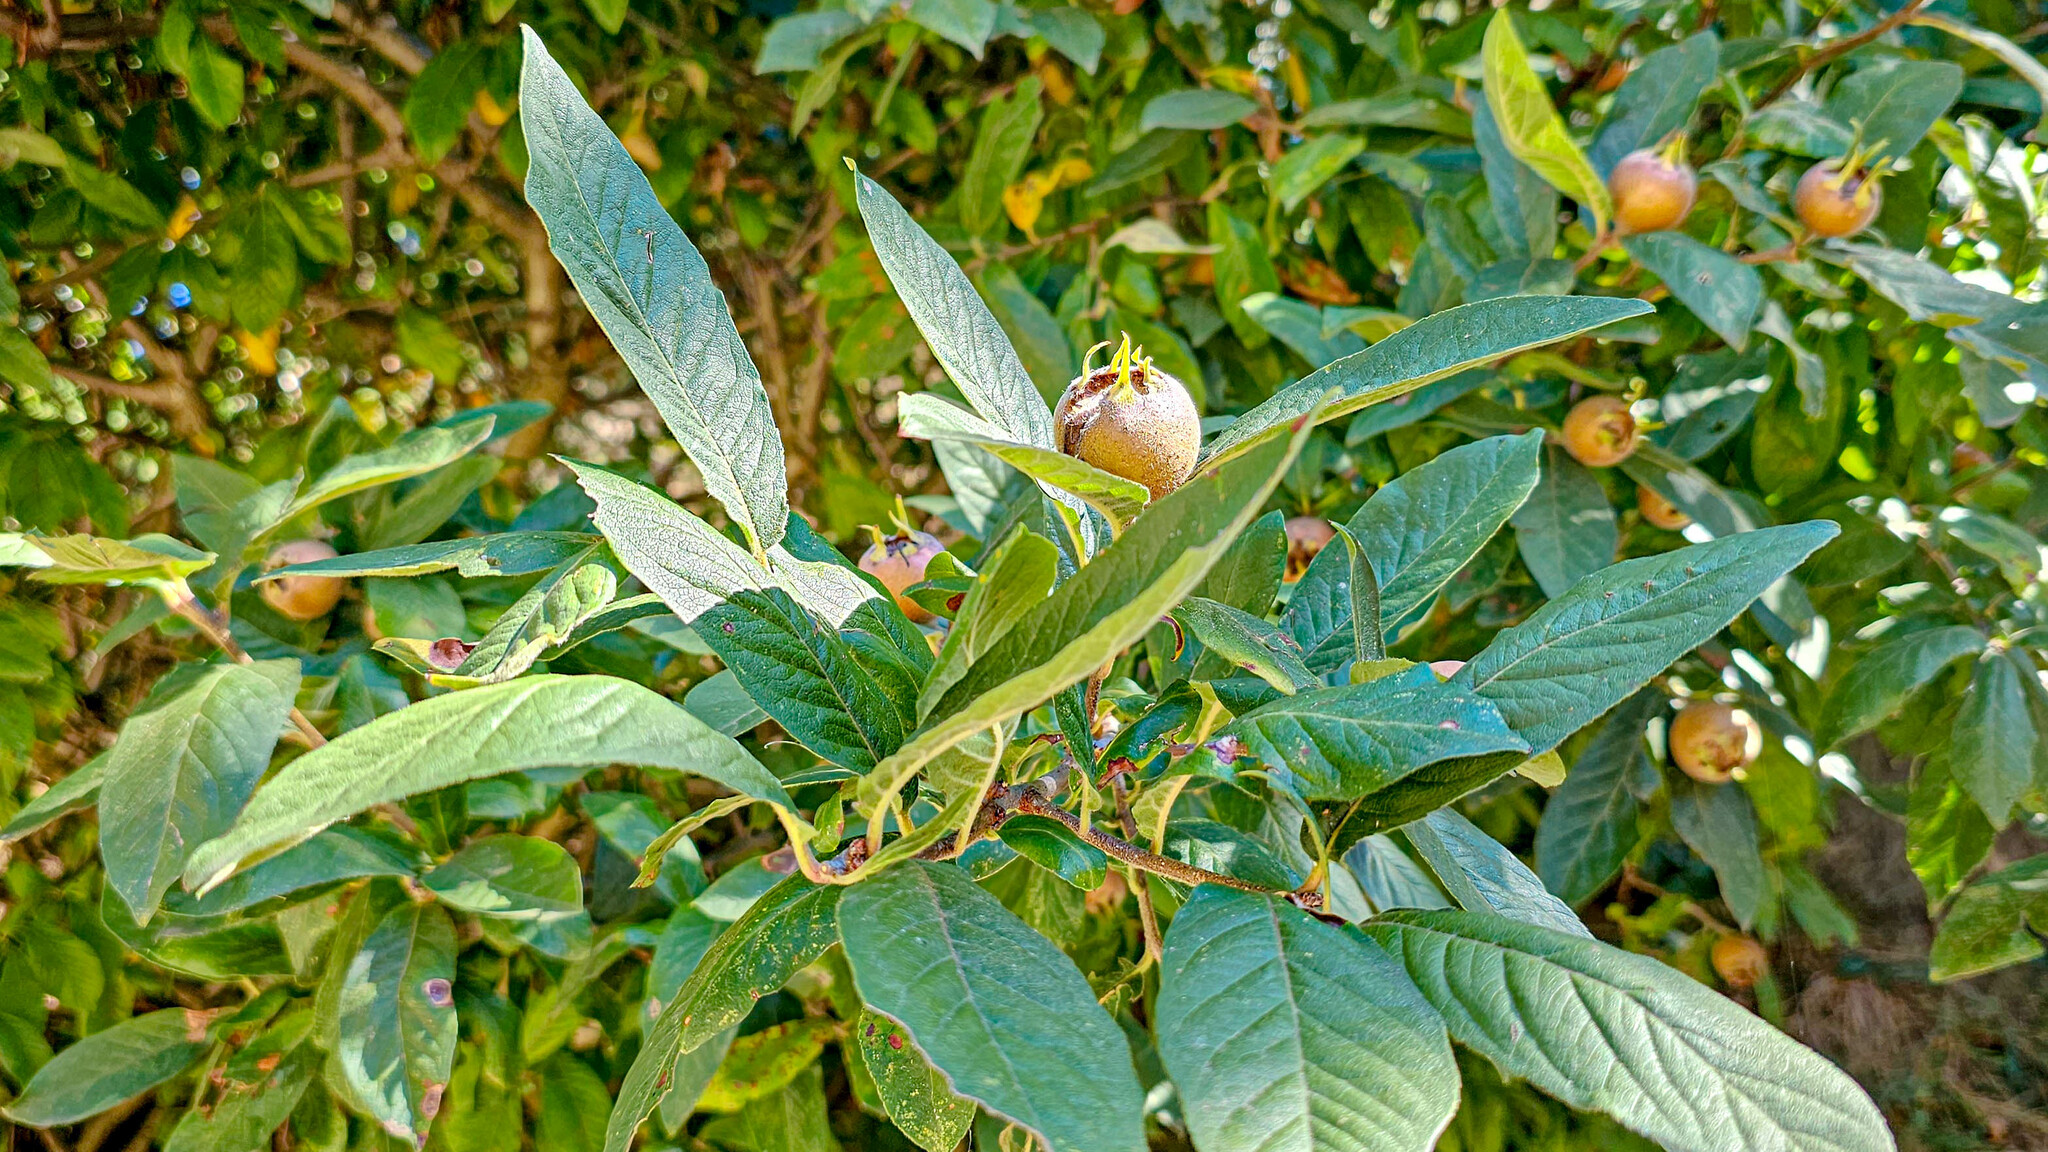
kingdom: Plantae
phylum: Tracheophyta
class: Magnoliopsida
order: Rosales
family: Rosaceae
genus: Mespilus
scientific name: Mespilus germanica
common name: Medlar
